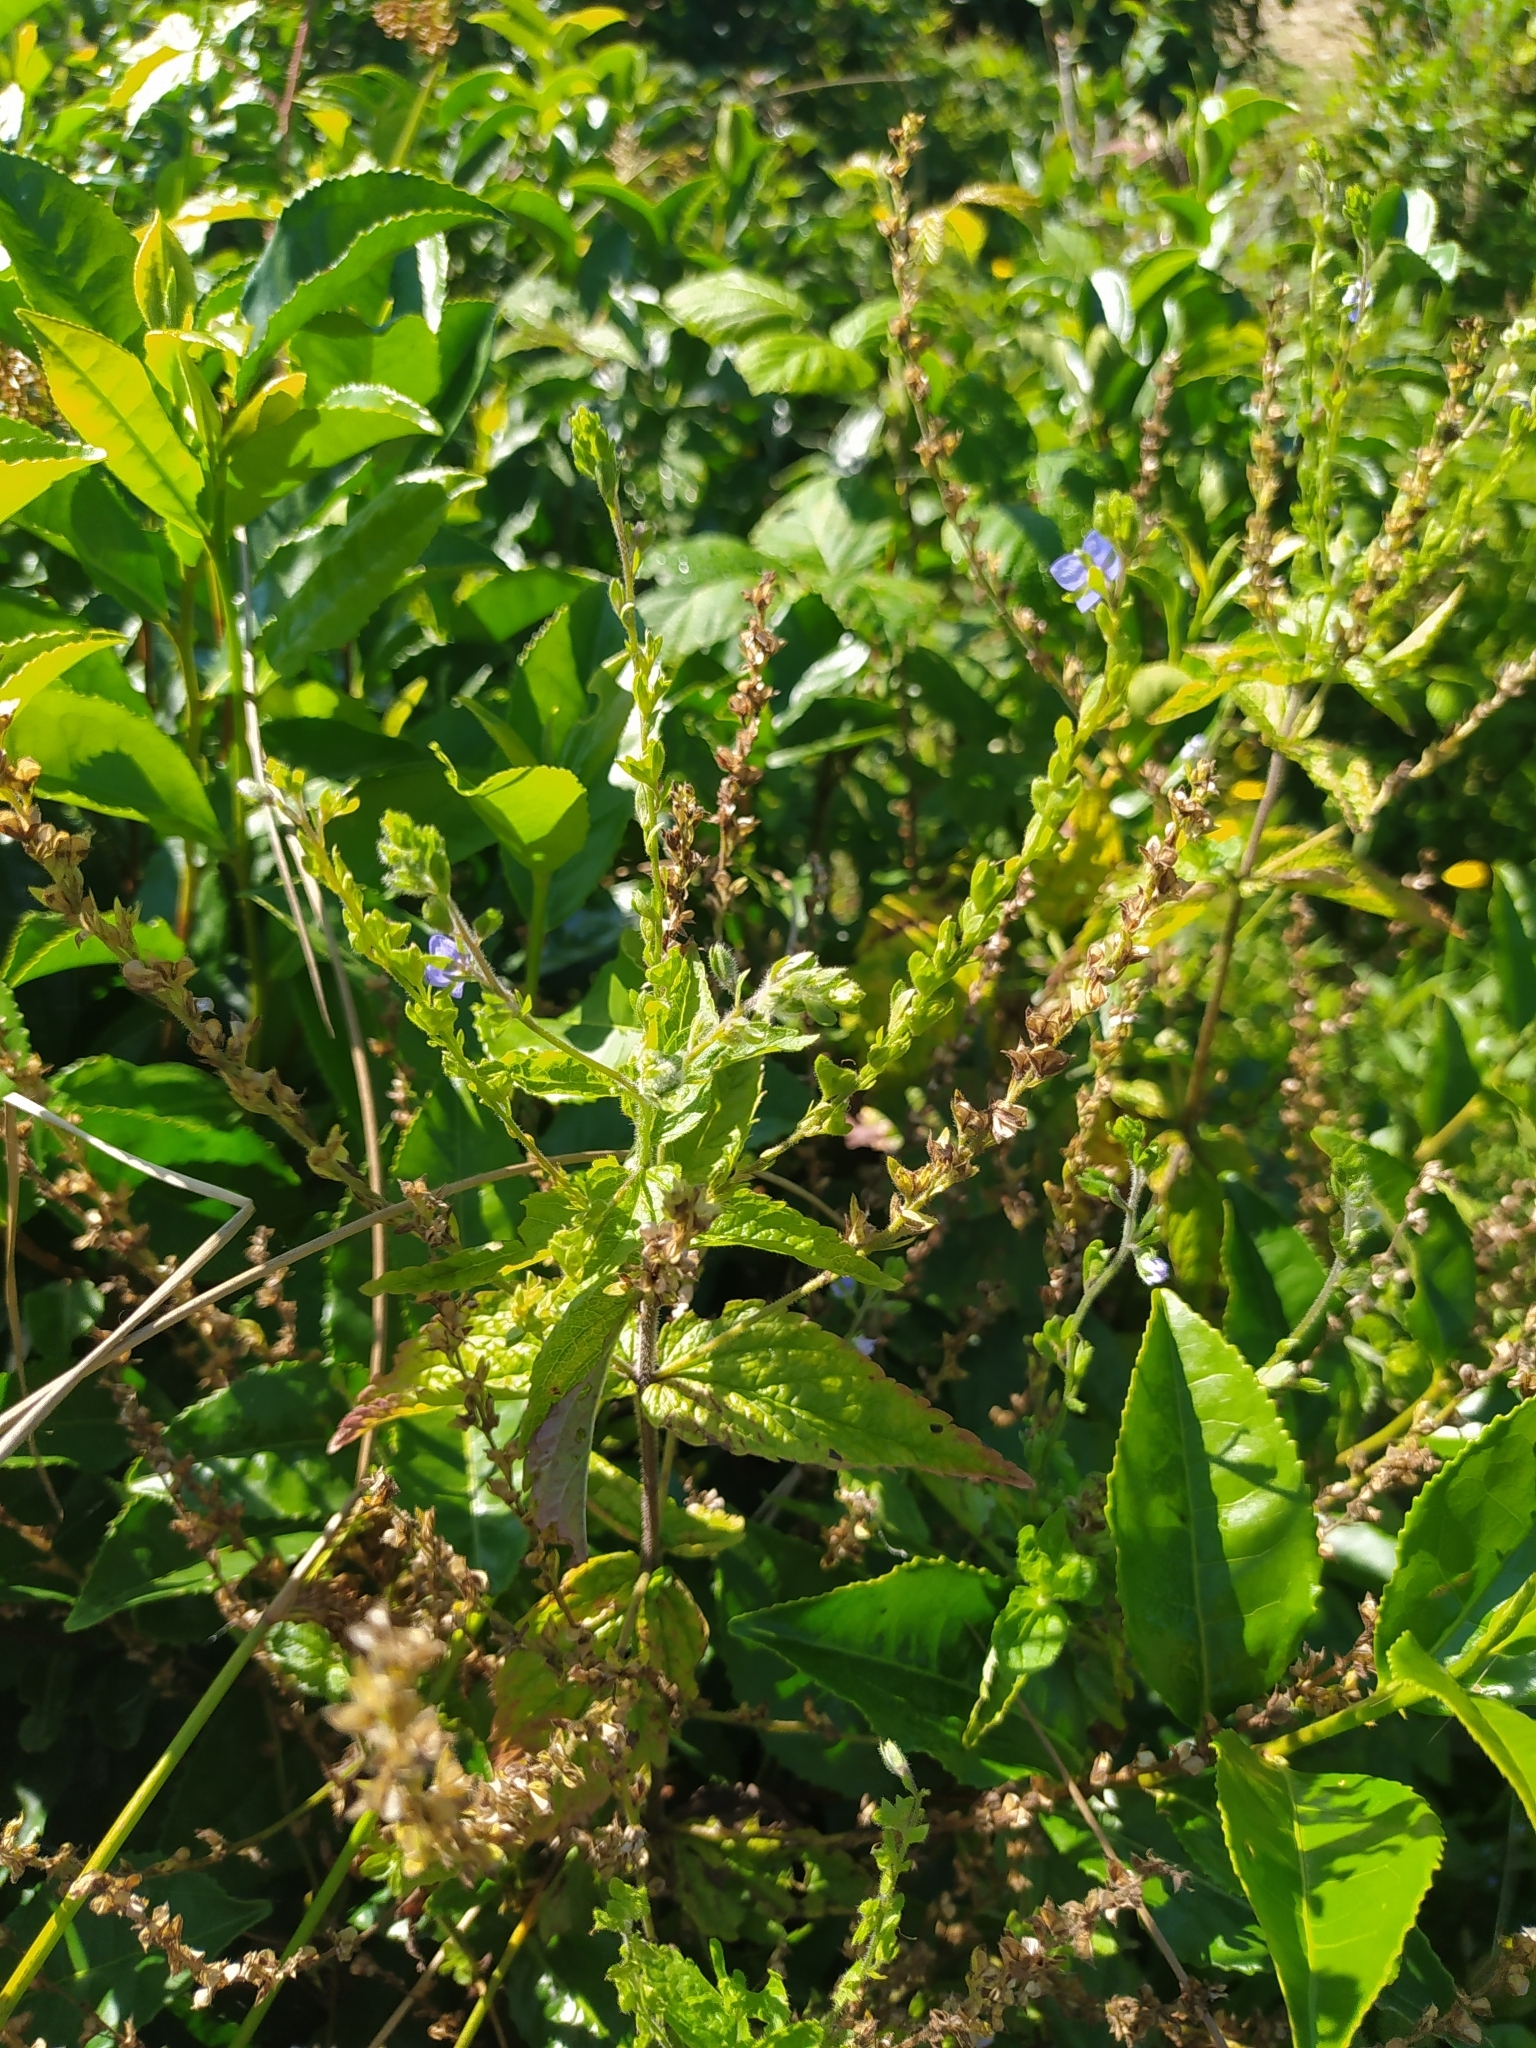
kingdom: Plantae
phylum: Tracheophyta
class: Magnoliopsida
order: Lamiales
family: Plantaginaceae
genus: Veronica
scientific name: Veronica magna
